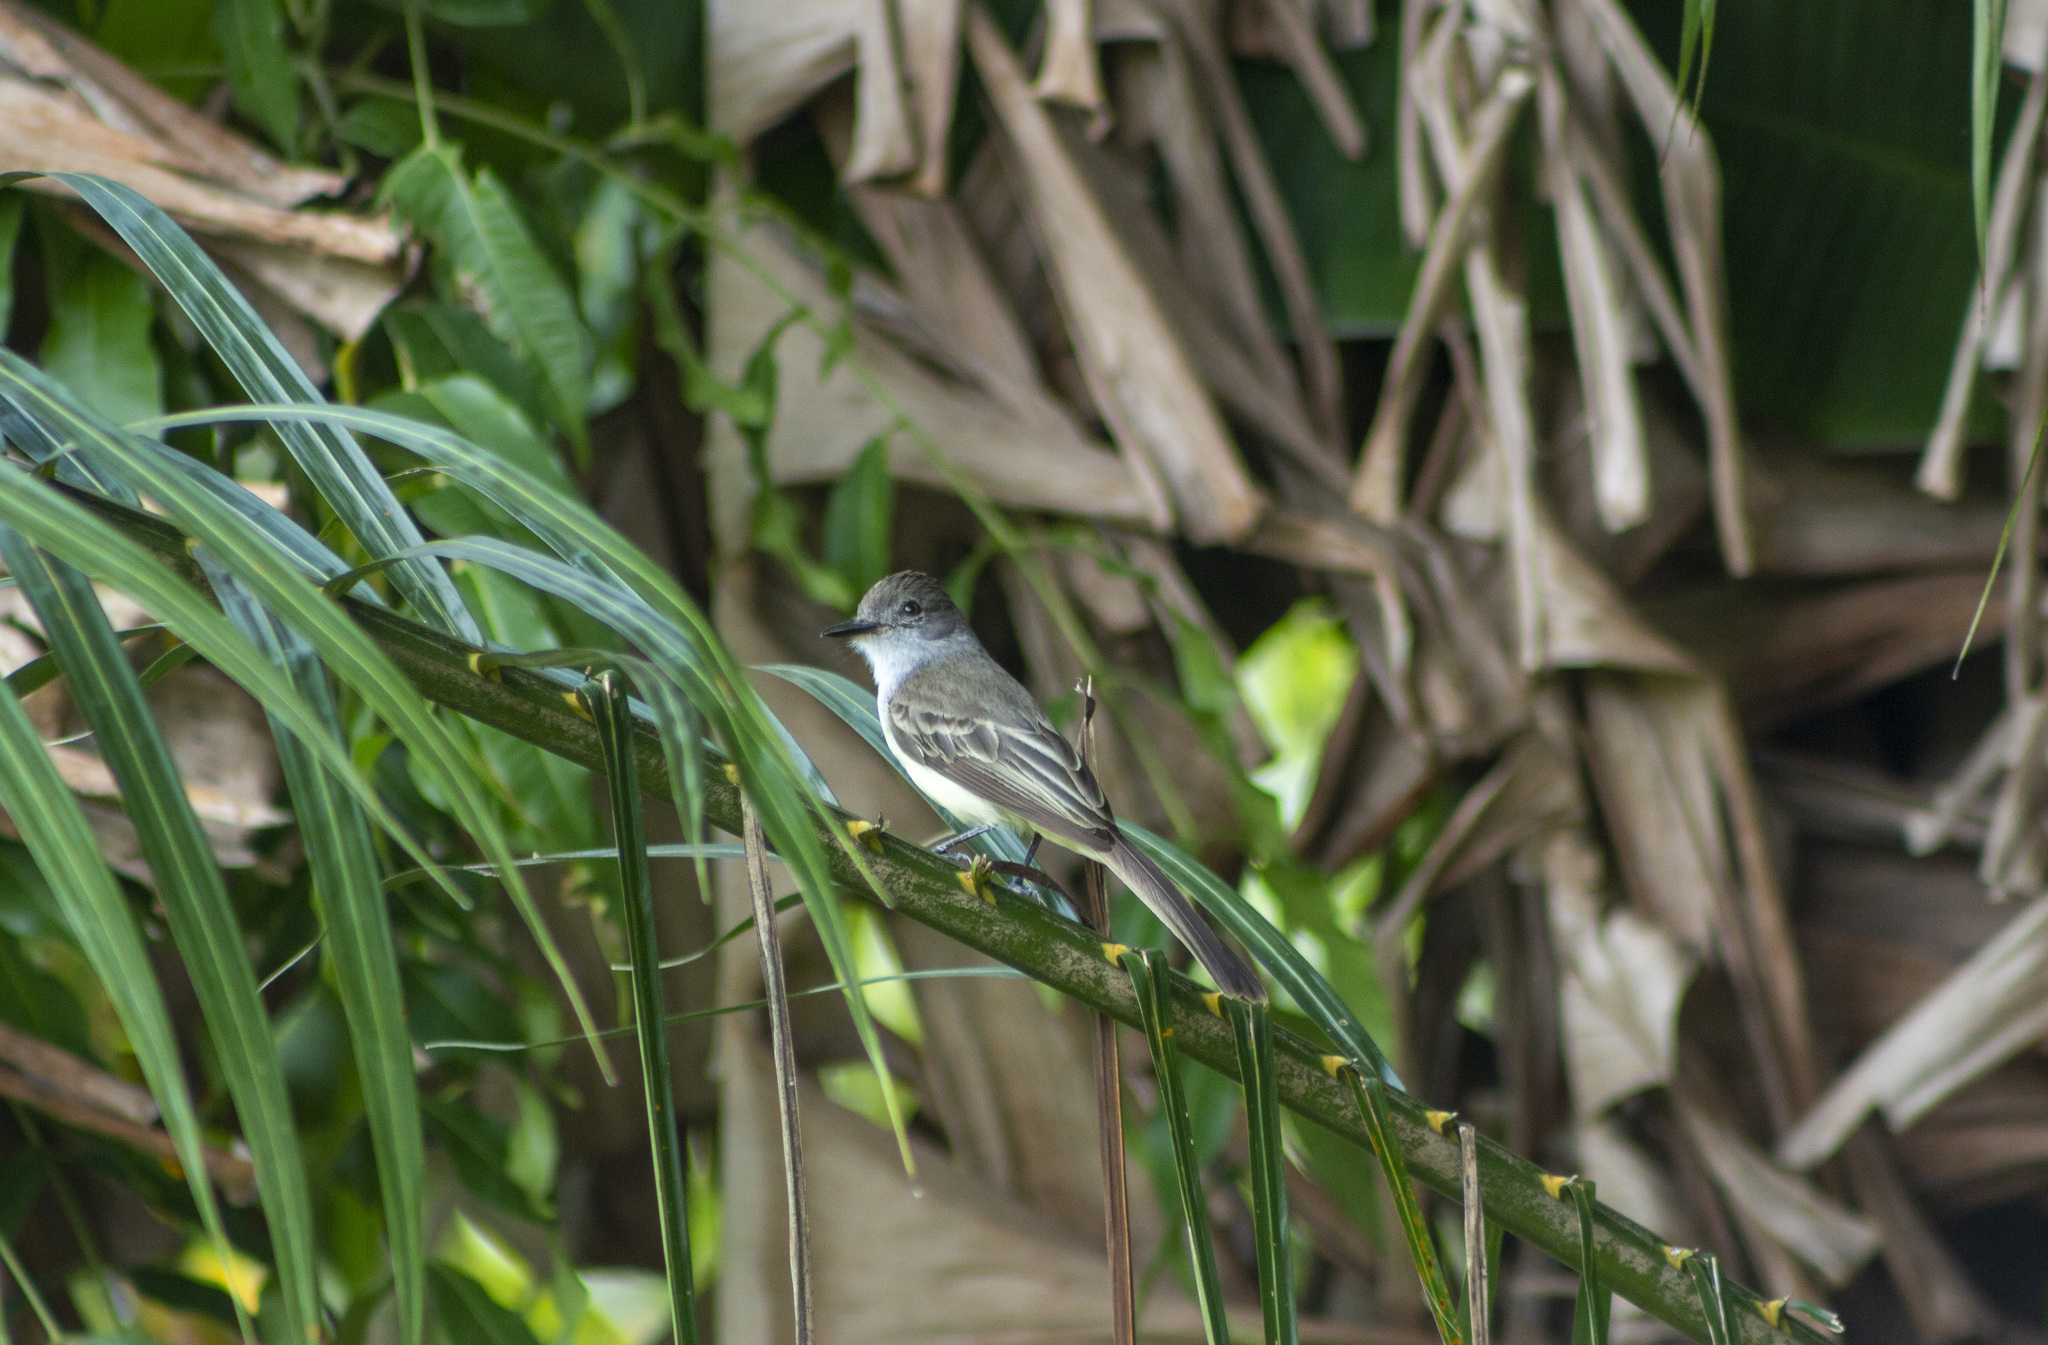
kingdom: Animalia
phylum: Chordata
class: Aves
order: Passeriformes
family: Tyrannidae
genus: Myiarchus
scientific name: Myiarchus ferox
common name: Short-crested flycatcher
